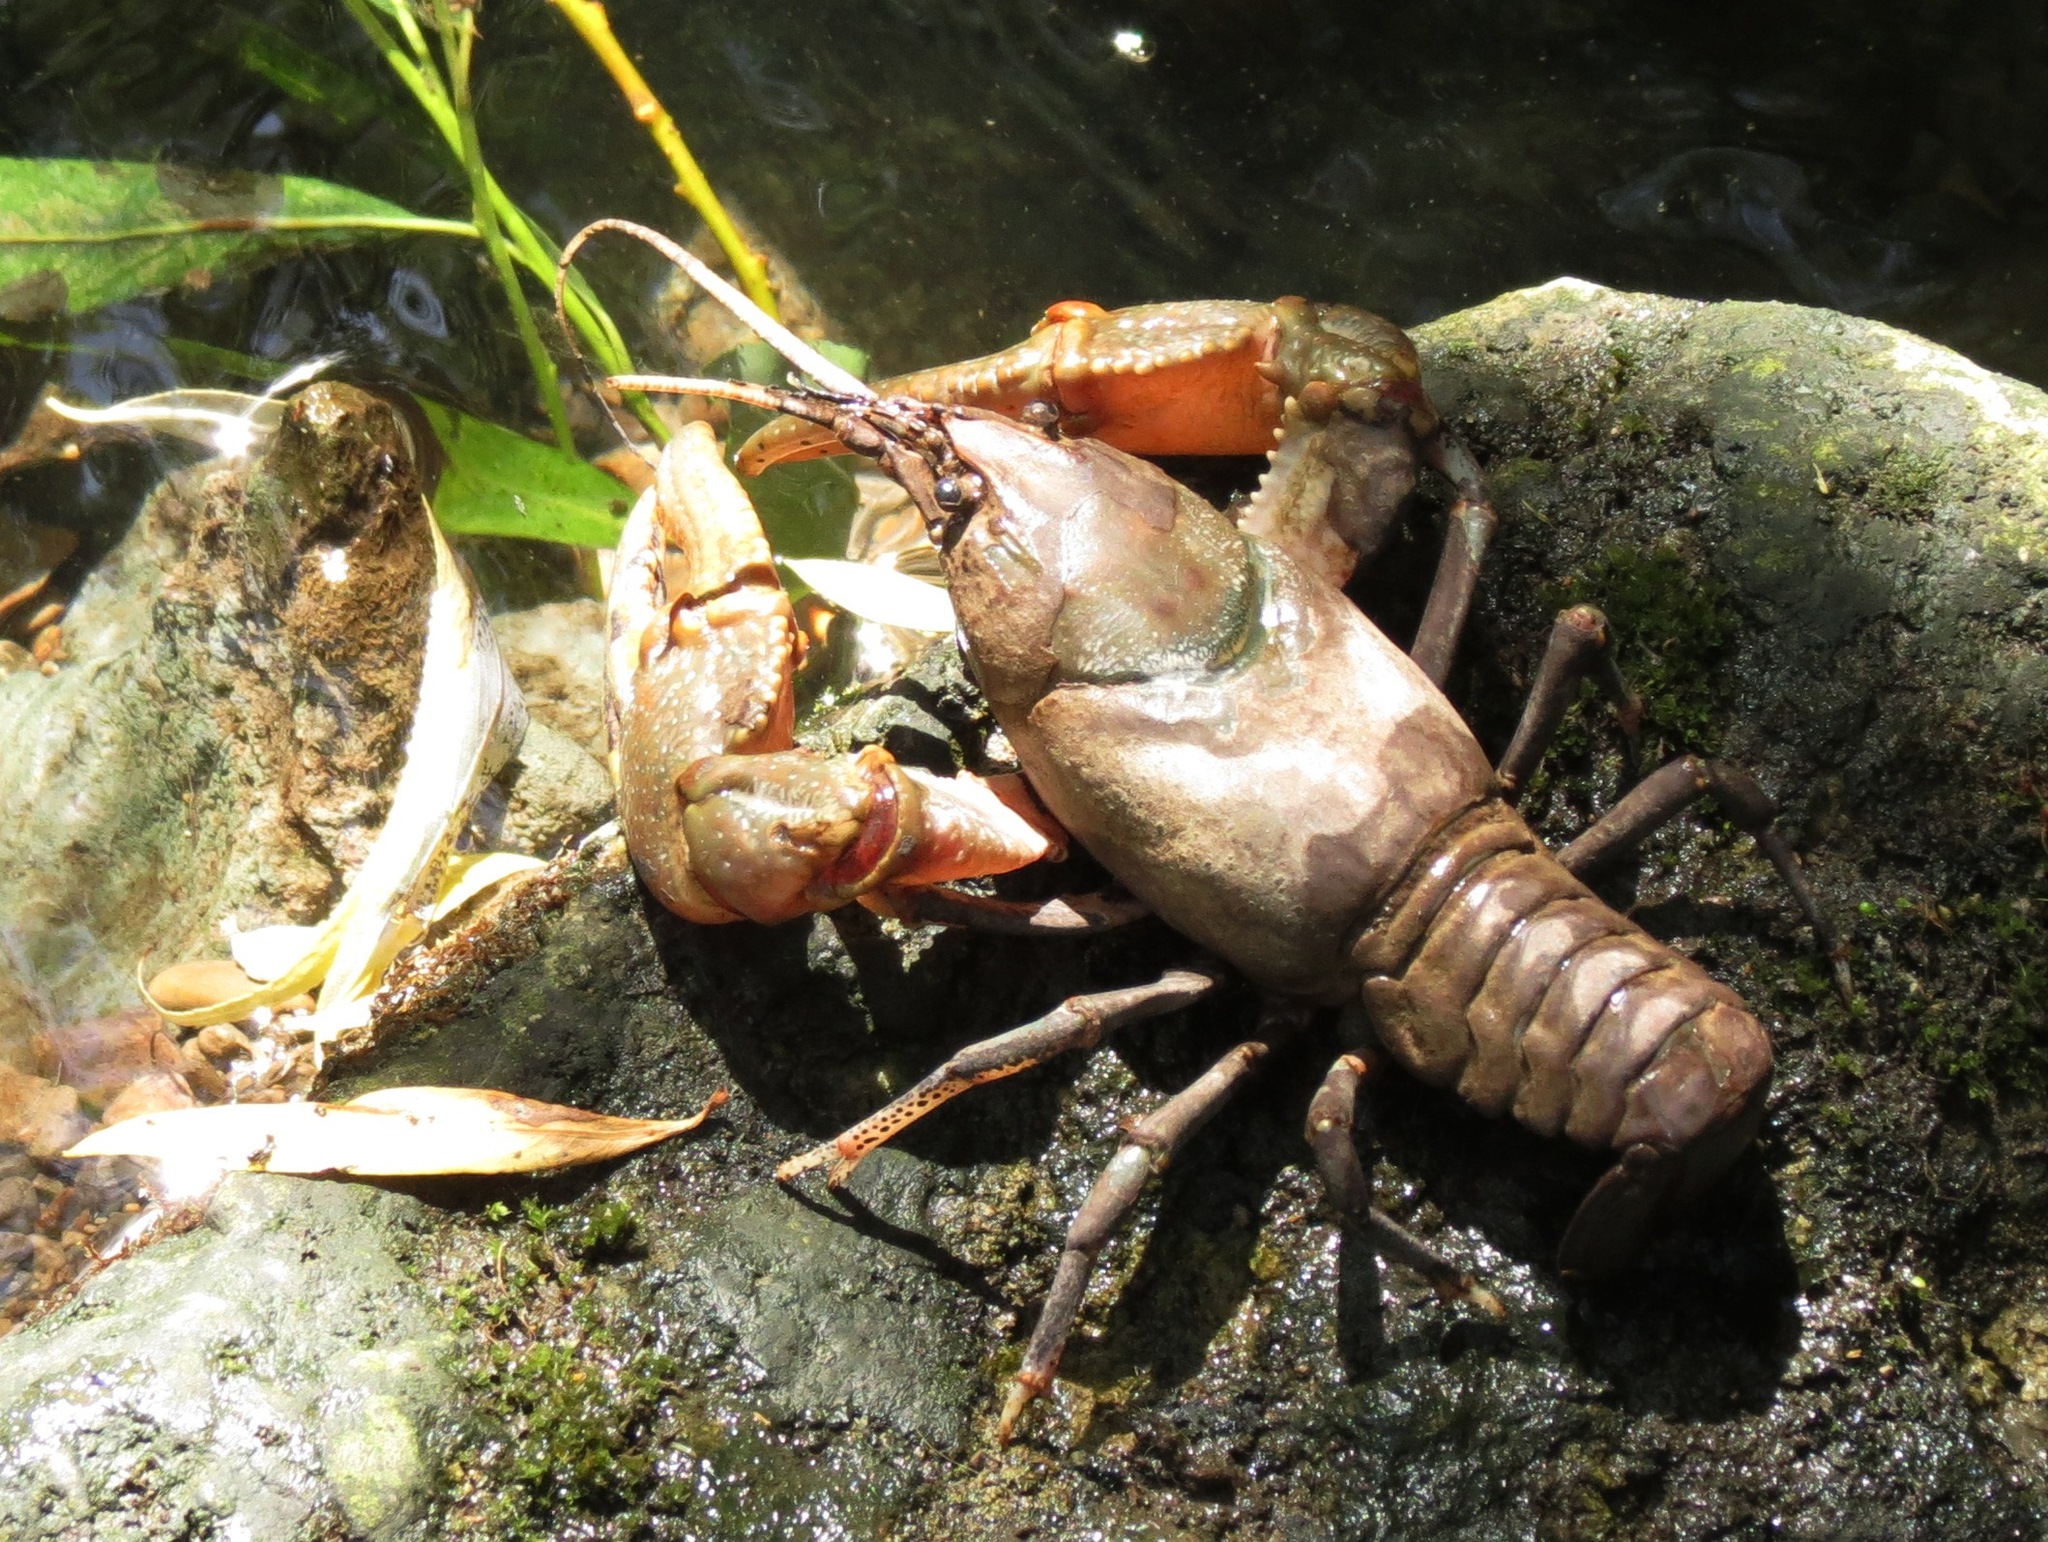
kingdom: Animalia
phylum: Arthropoda
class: Malacostraca
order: Decapoda
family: Cambaridae
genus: Cambarus
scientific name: Cambarus robustus
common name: Big water crayfish
